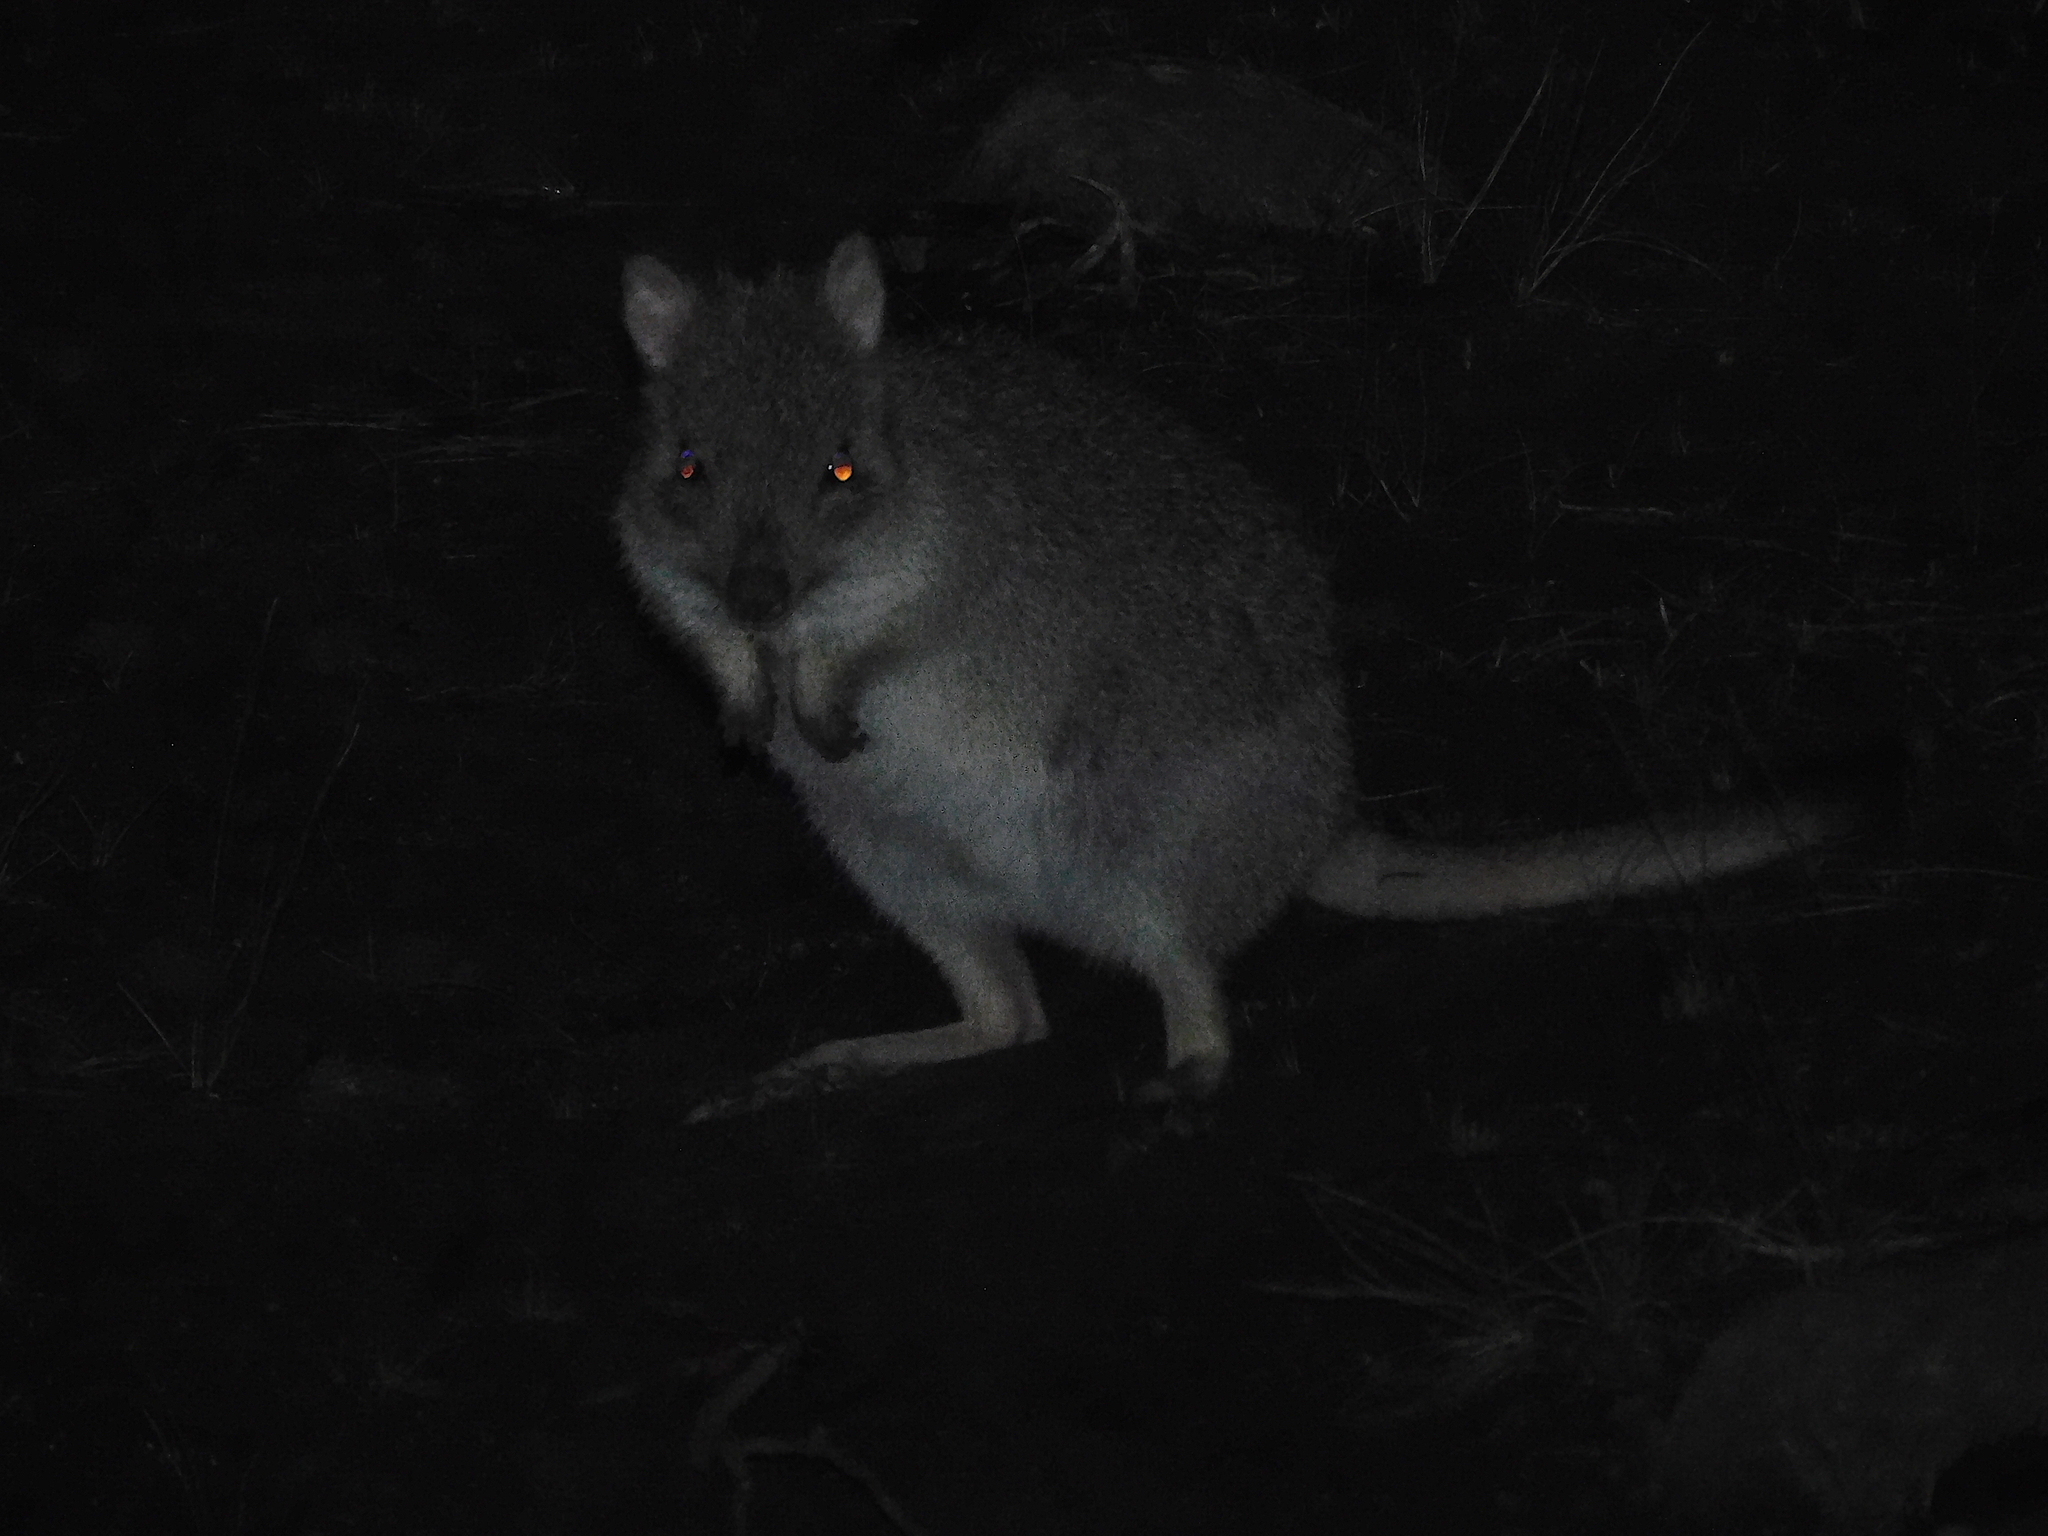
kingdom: Animalia
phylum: Chordata
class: Mammalia
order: Diprotodontia
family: Potoroidae
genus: Bettongia
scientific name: Bettongia gaimardi
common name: Eastern bettong
